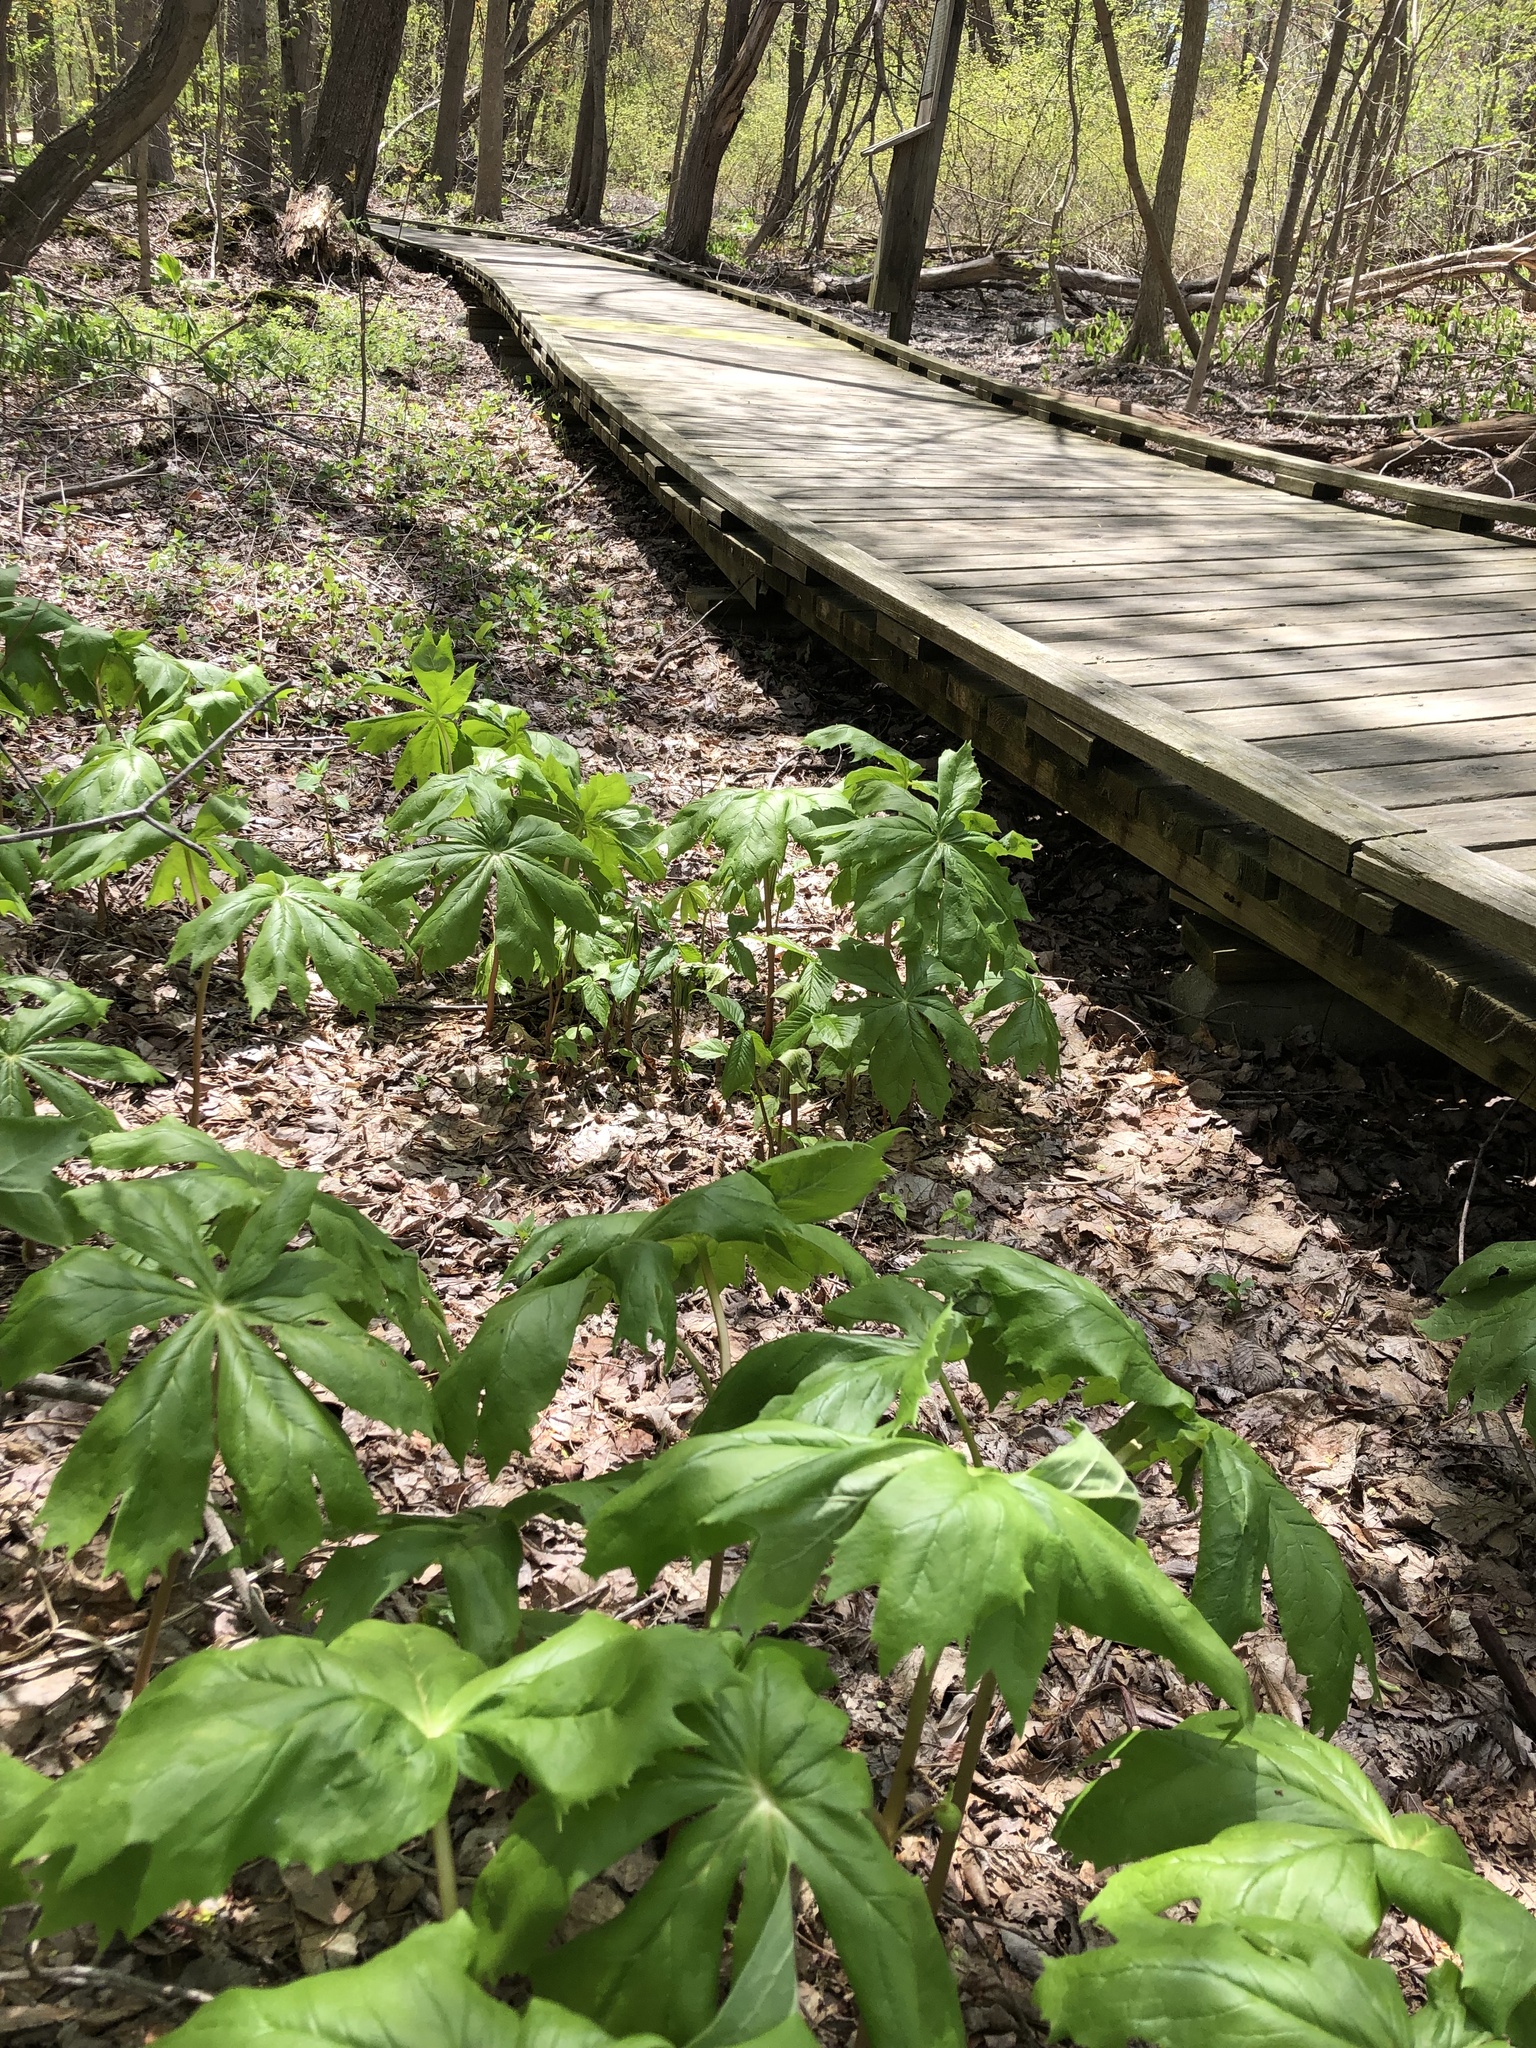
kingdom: Plantae
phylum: Tracheophyta
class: Magnoliopsida
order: Ranunculales
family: Berberidaceae
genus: Podophyllum
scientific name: Podophyllum peltatum
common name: Wild mandrake
